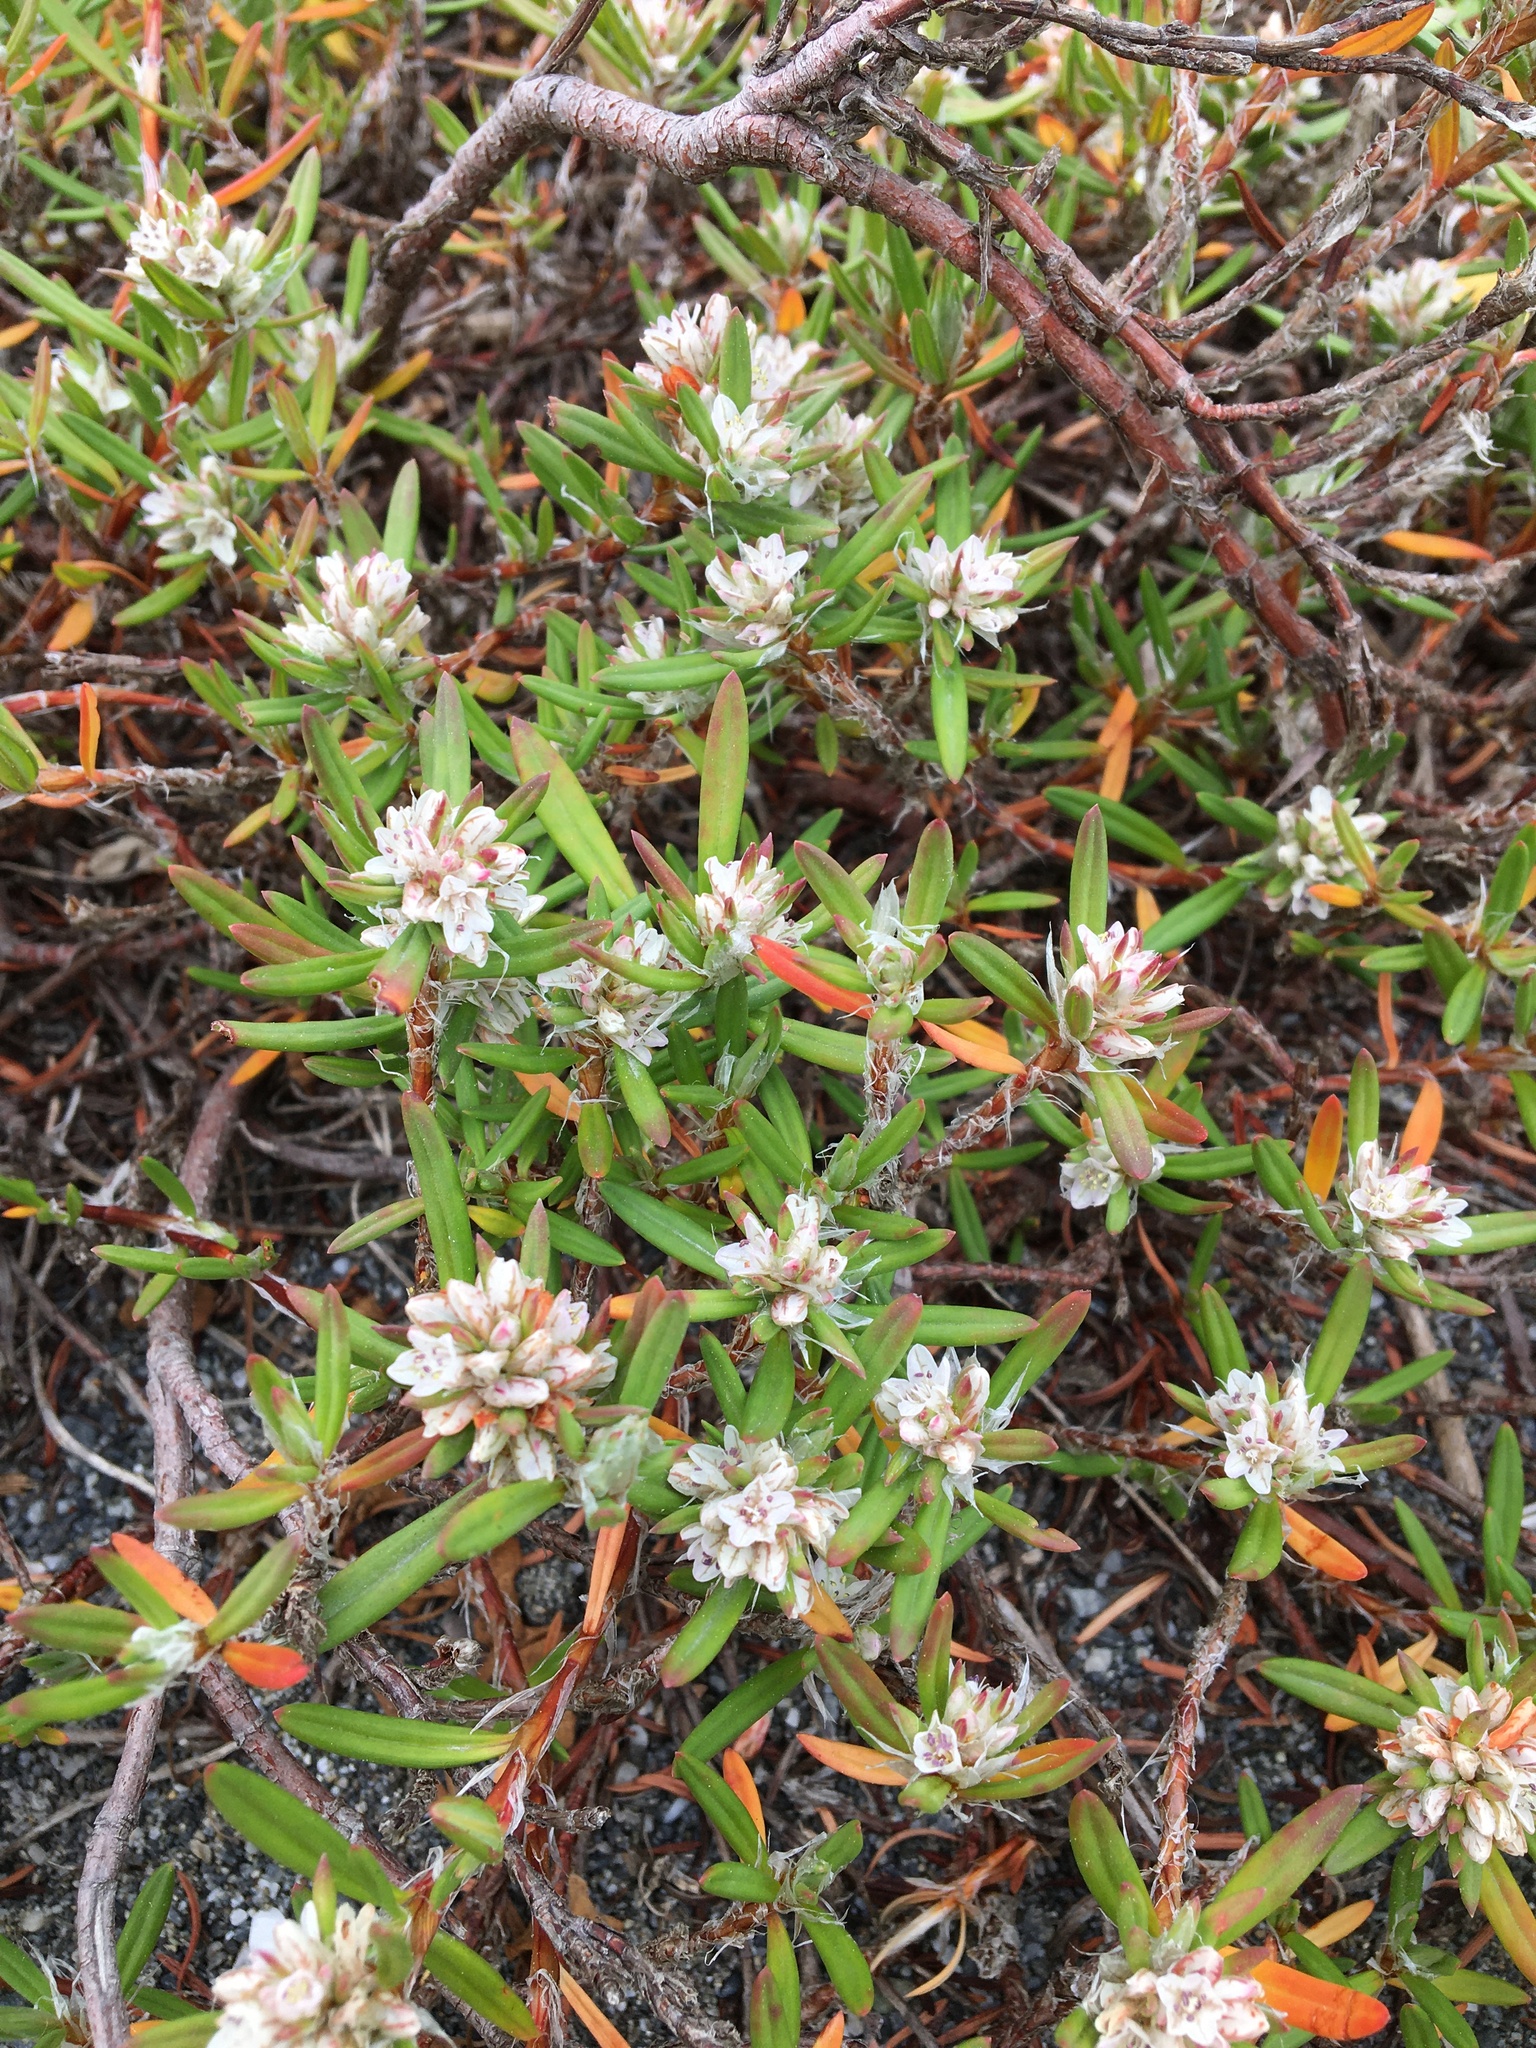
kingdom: Plantae
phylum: Tracheophyta
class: Magnoliopsida
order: Caryophyllales
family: Polygonaceae
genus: Polygonum
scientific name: Polygonum paronychia
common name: Dune knotweed
